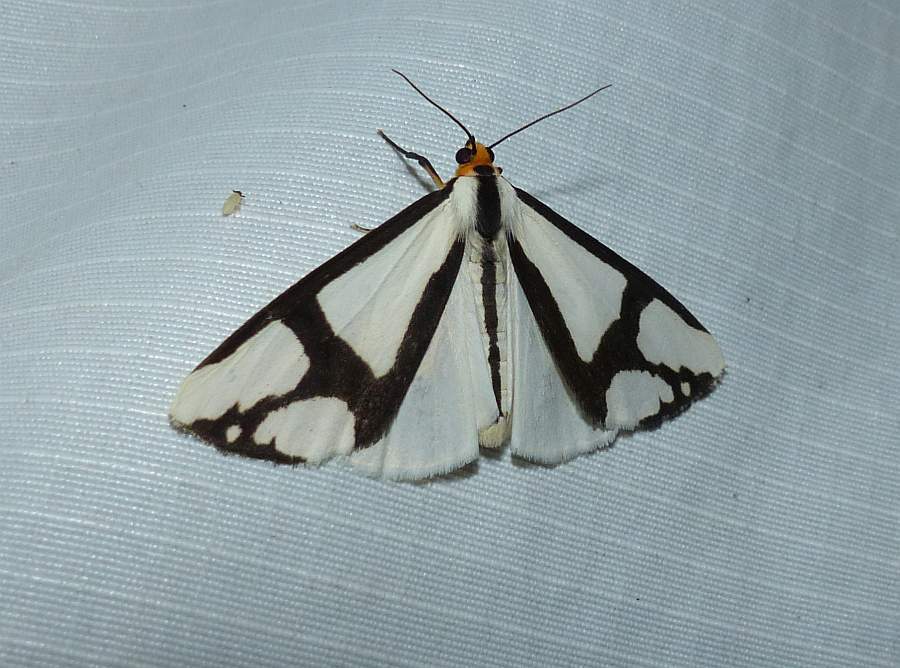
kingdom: Animalia
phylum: Arthropoda
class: Insecta
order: Lepidoptera
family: Erebidae
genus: Haploa
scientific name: Haploa contigua
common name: Neighbor moth
